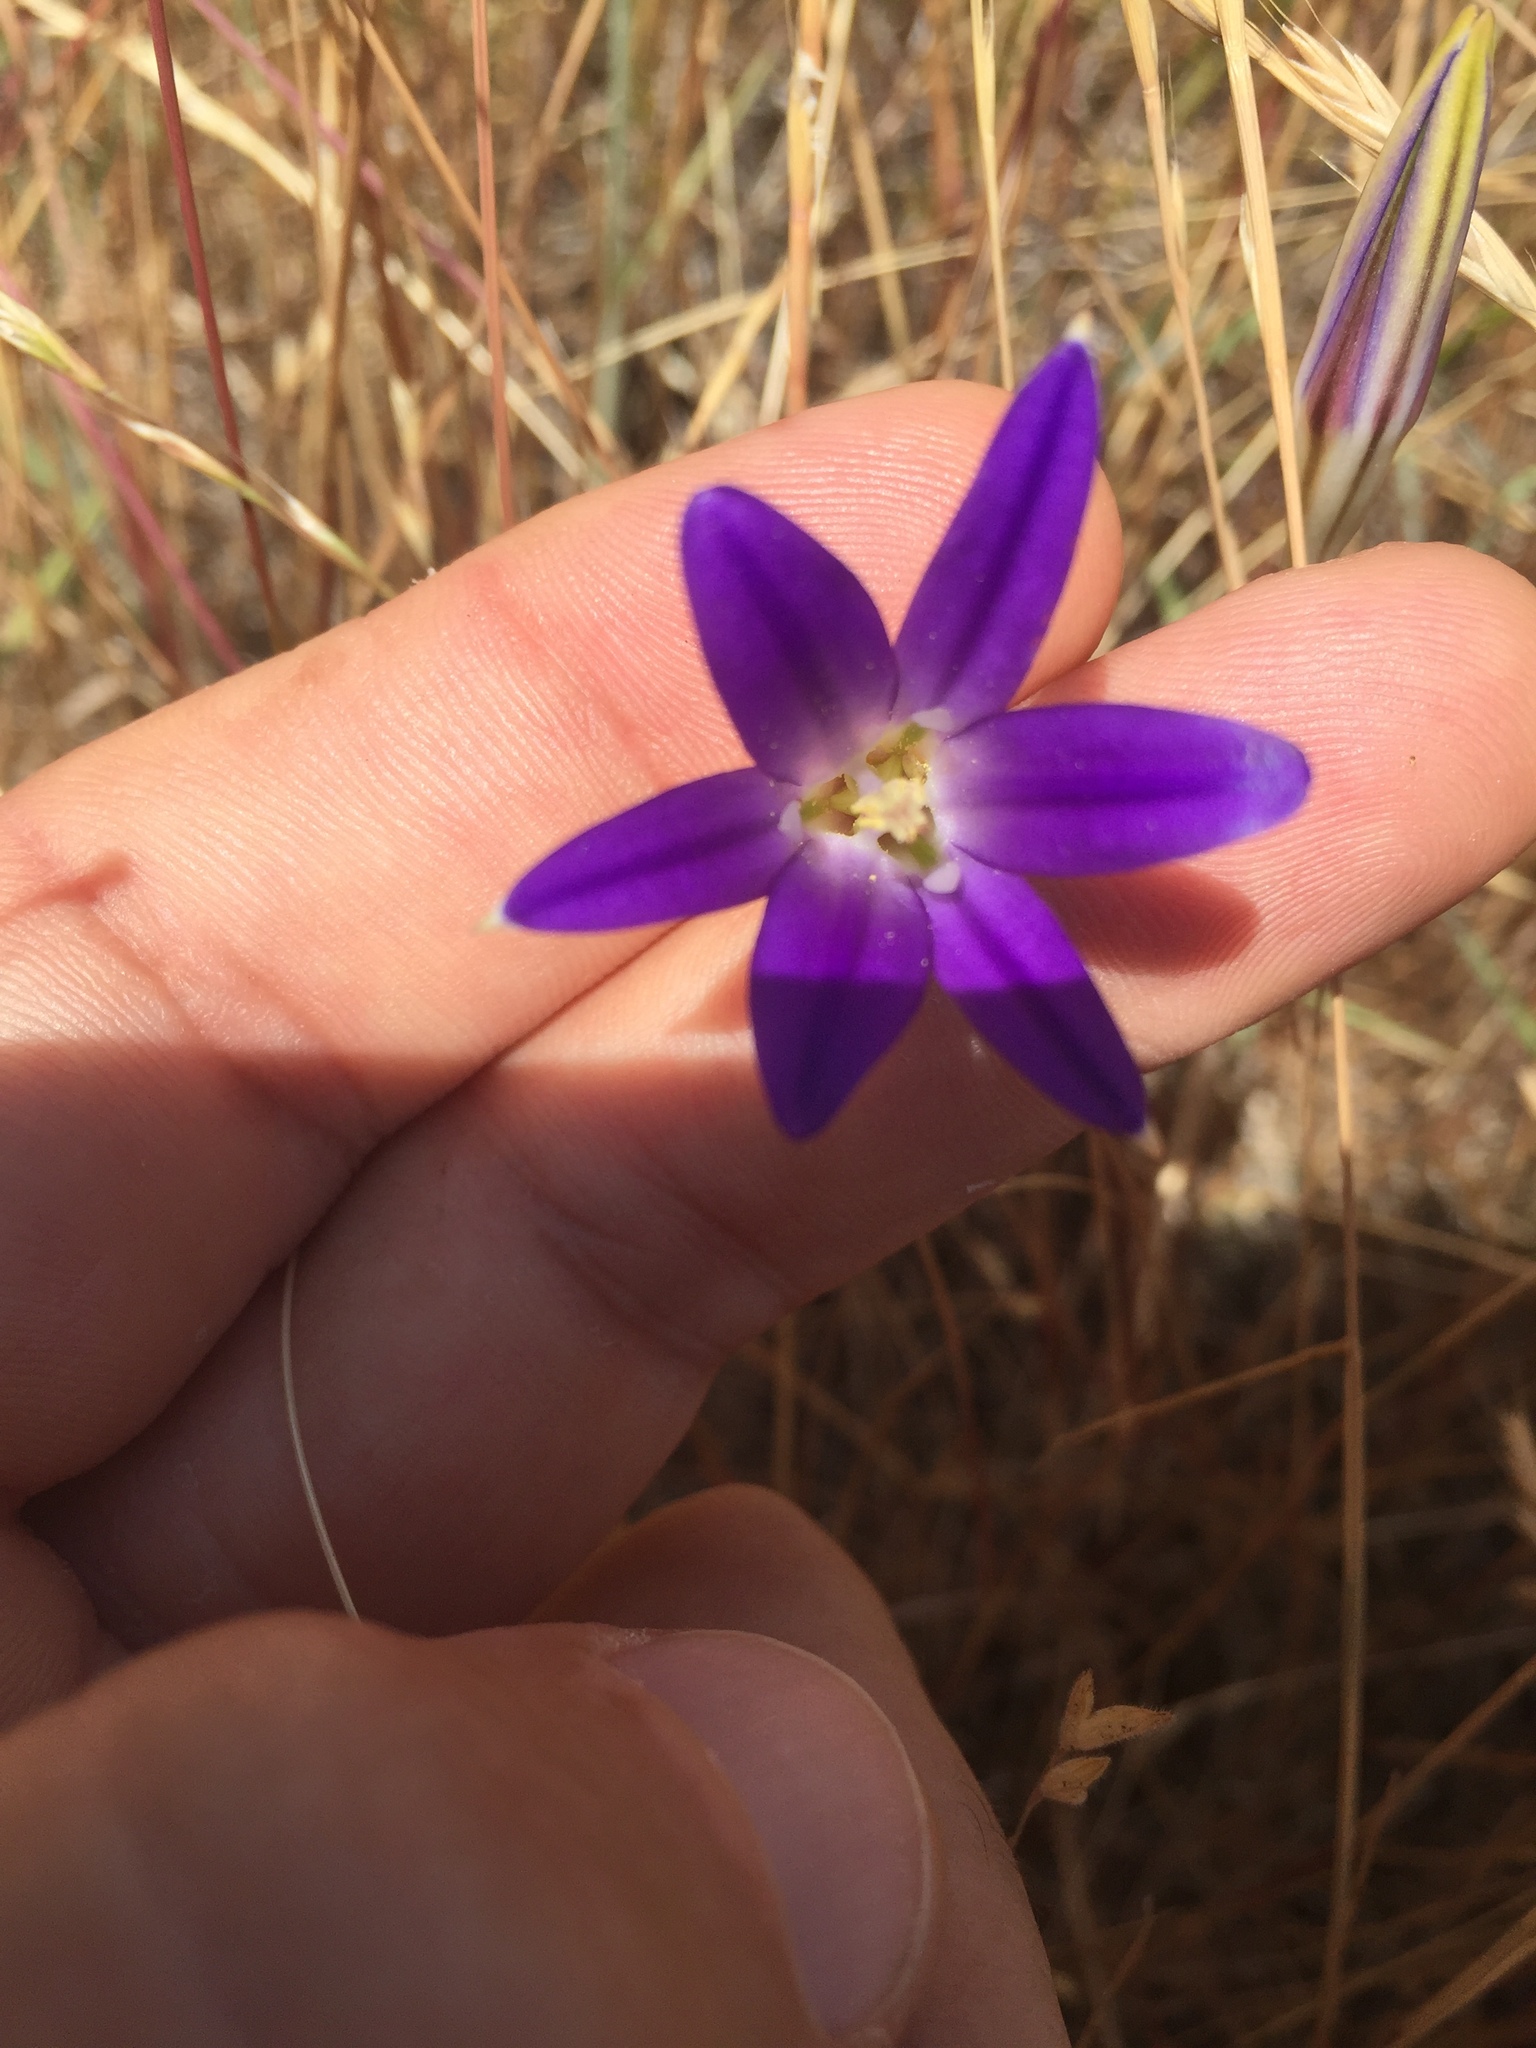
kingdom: Plantae
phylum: Tracheophyta
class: Liliopsida
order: Asparagales
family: Asparagaceae
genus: Brodiaea
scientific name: Brodiaea elegans
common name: Elegant cluster-lily
